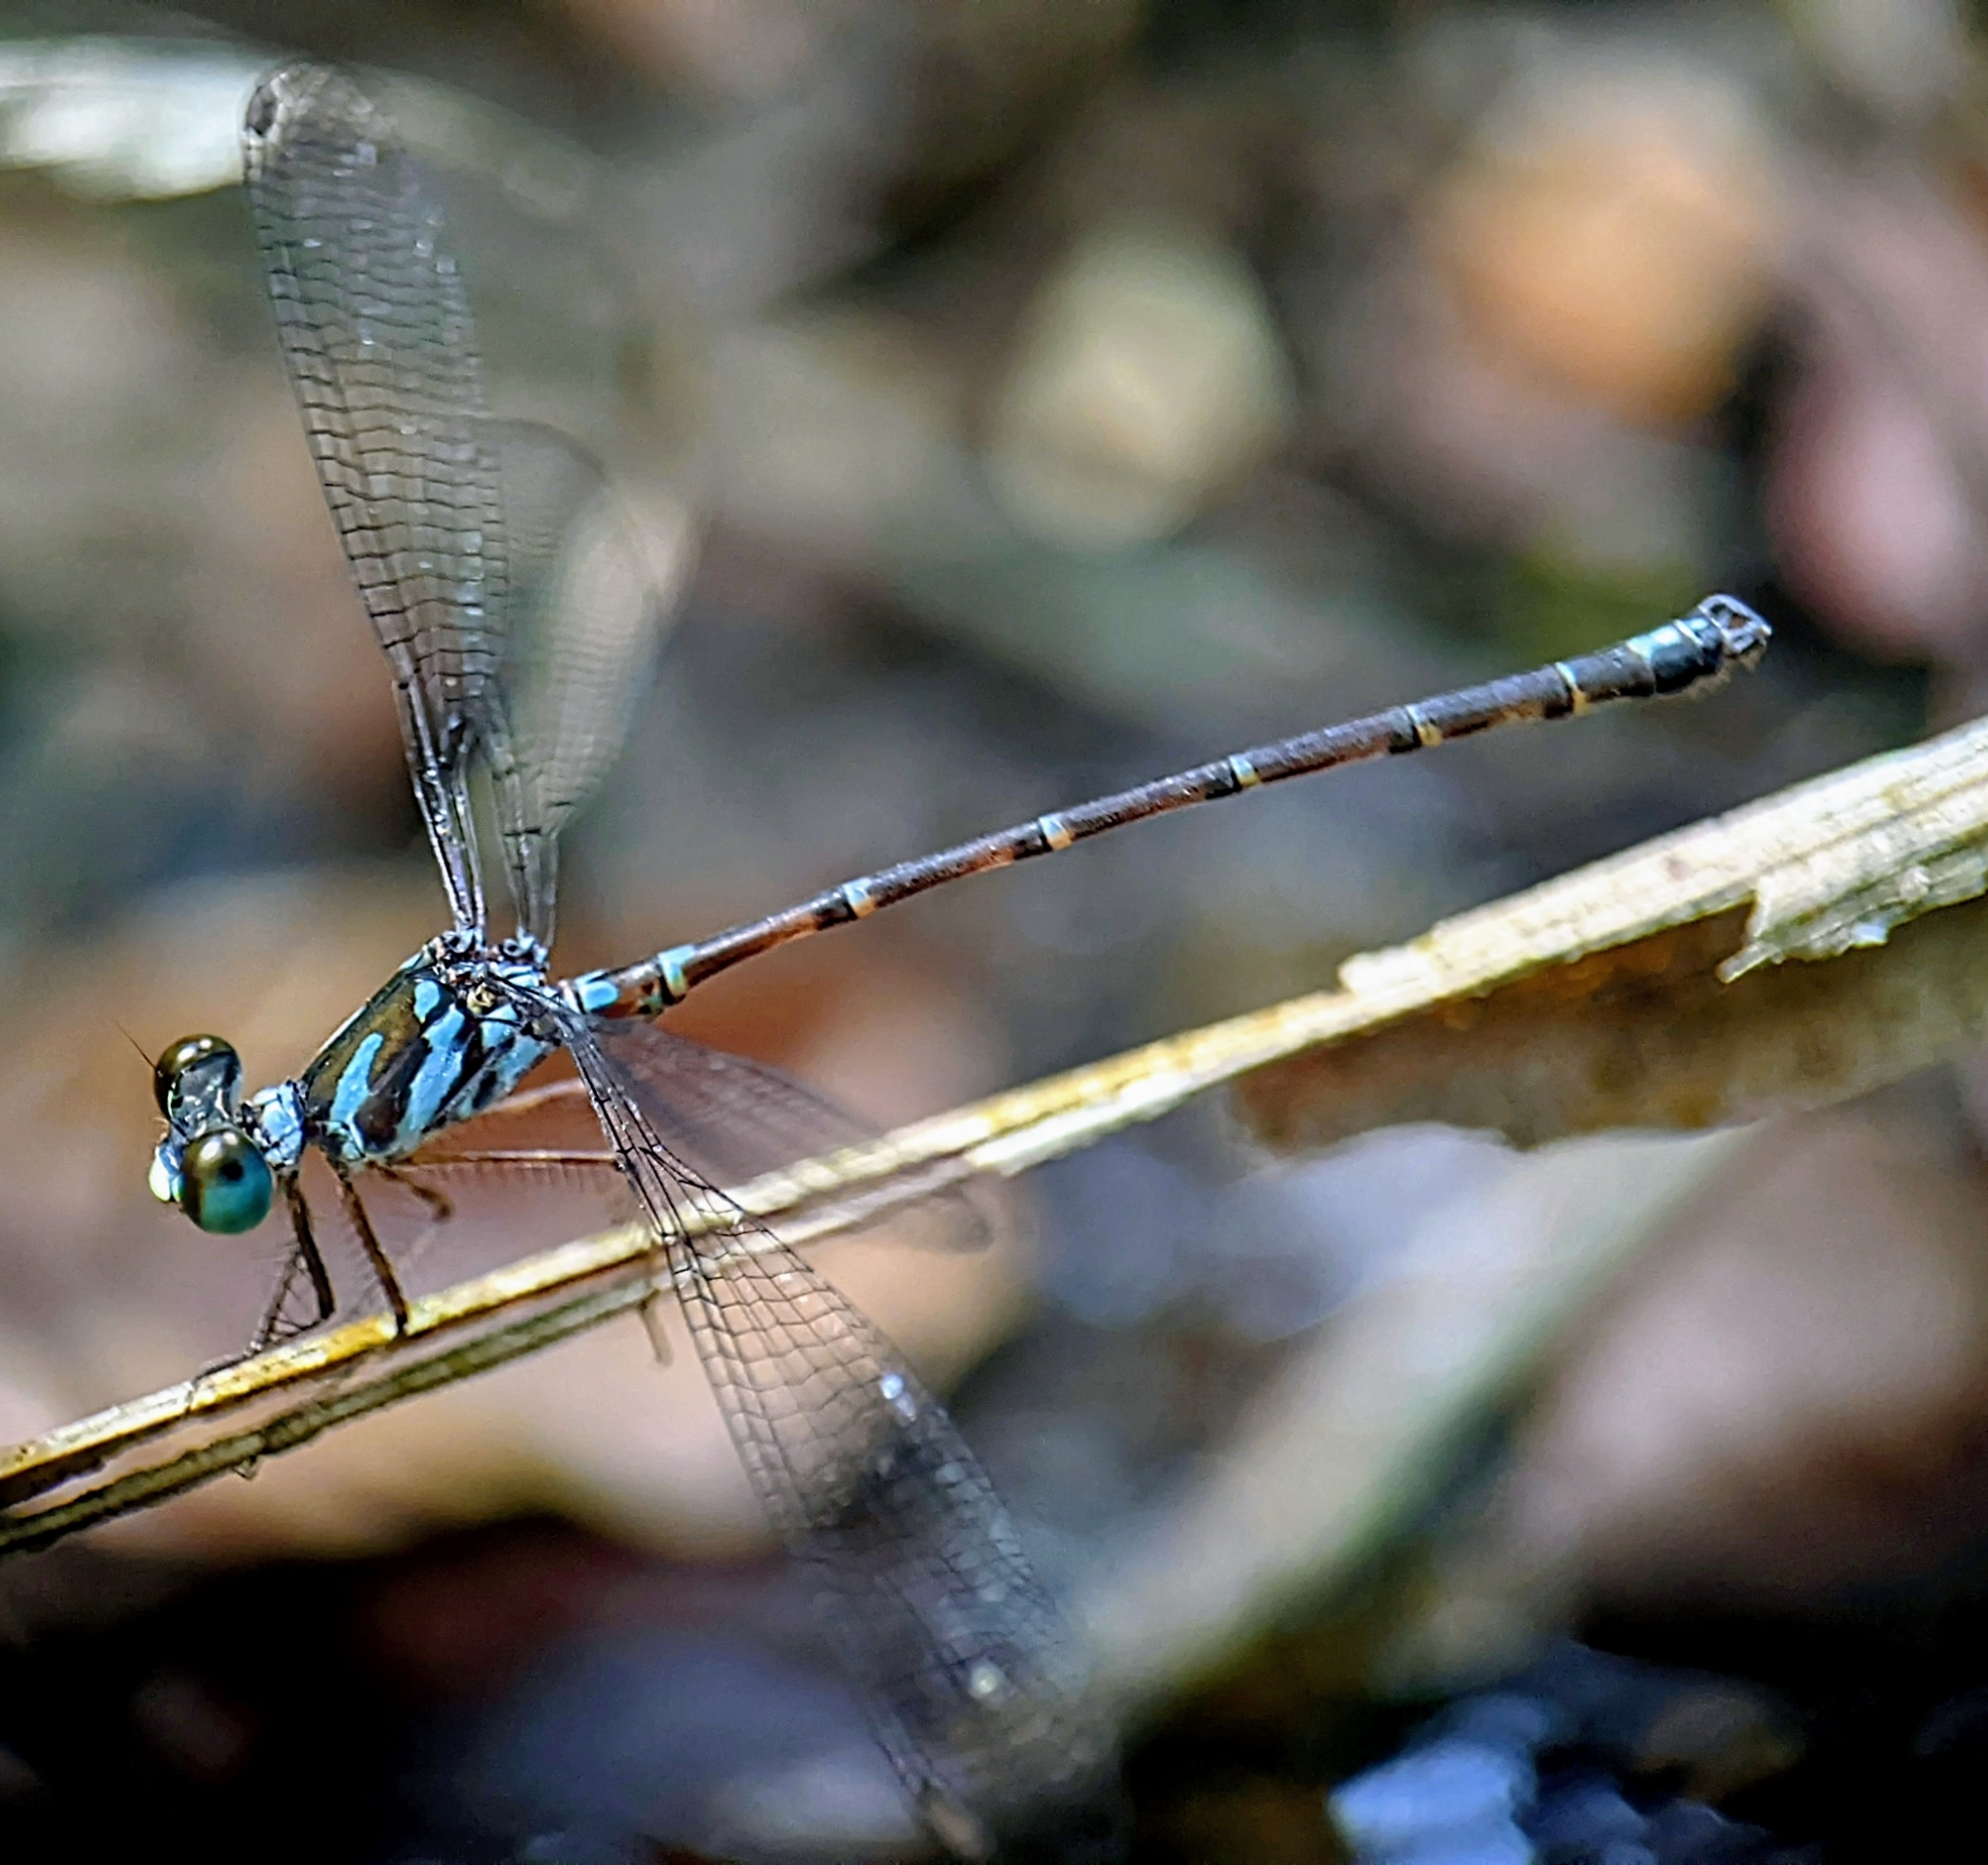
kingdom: Animalia
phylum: Arthropoda
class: Insecta
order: Odonata
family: Argiolestidae
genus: Podolestes
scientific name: Podolestes orientalis
